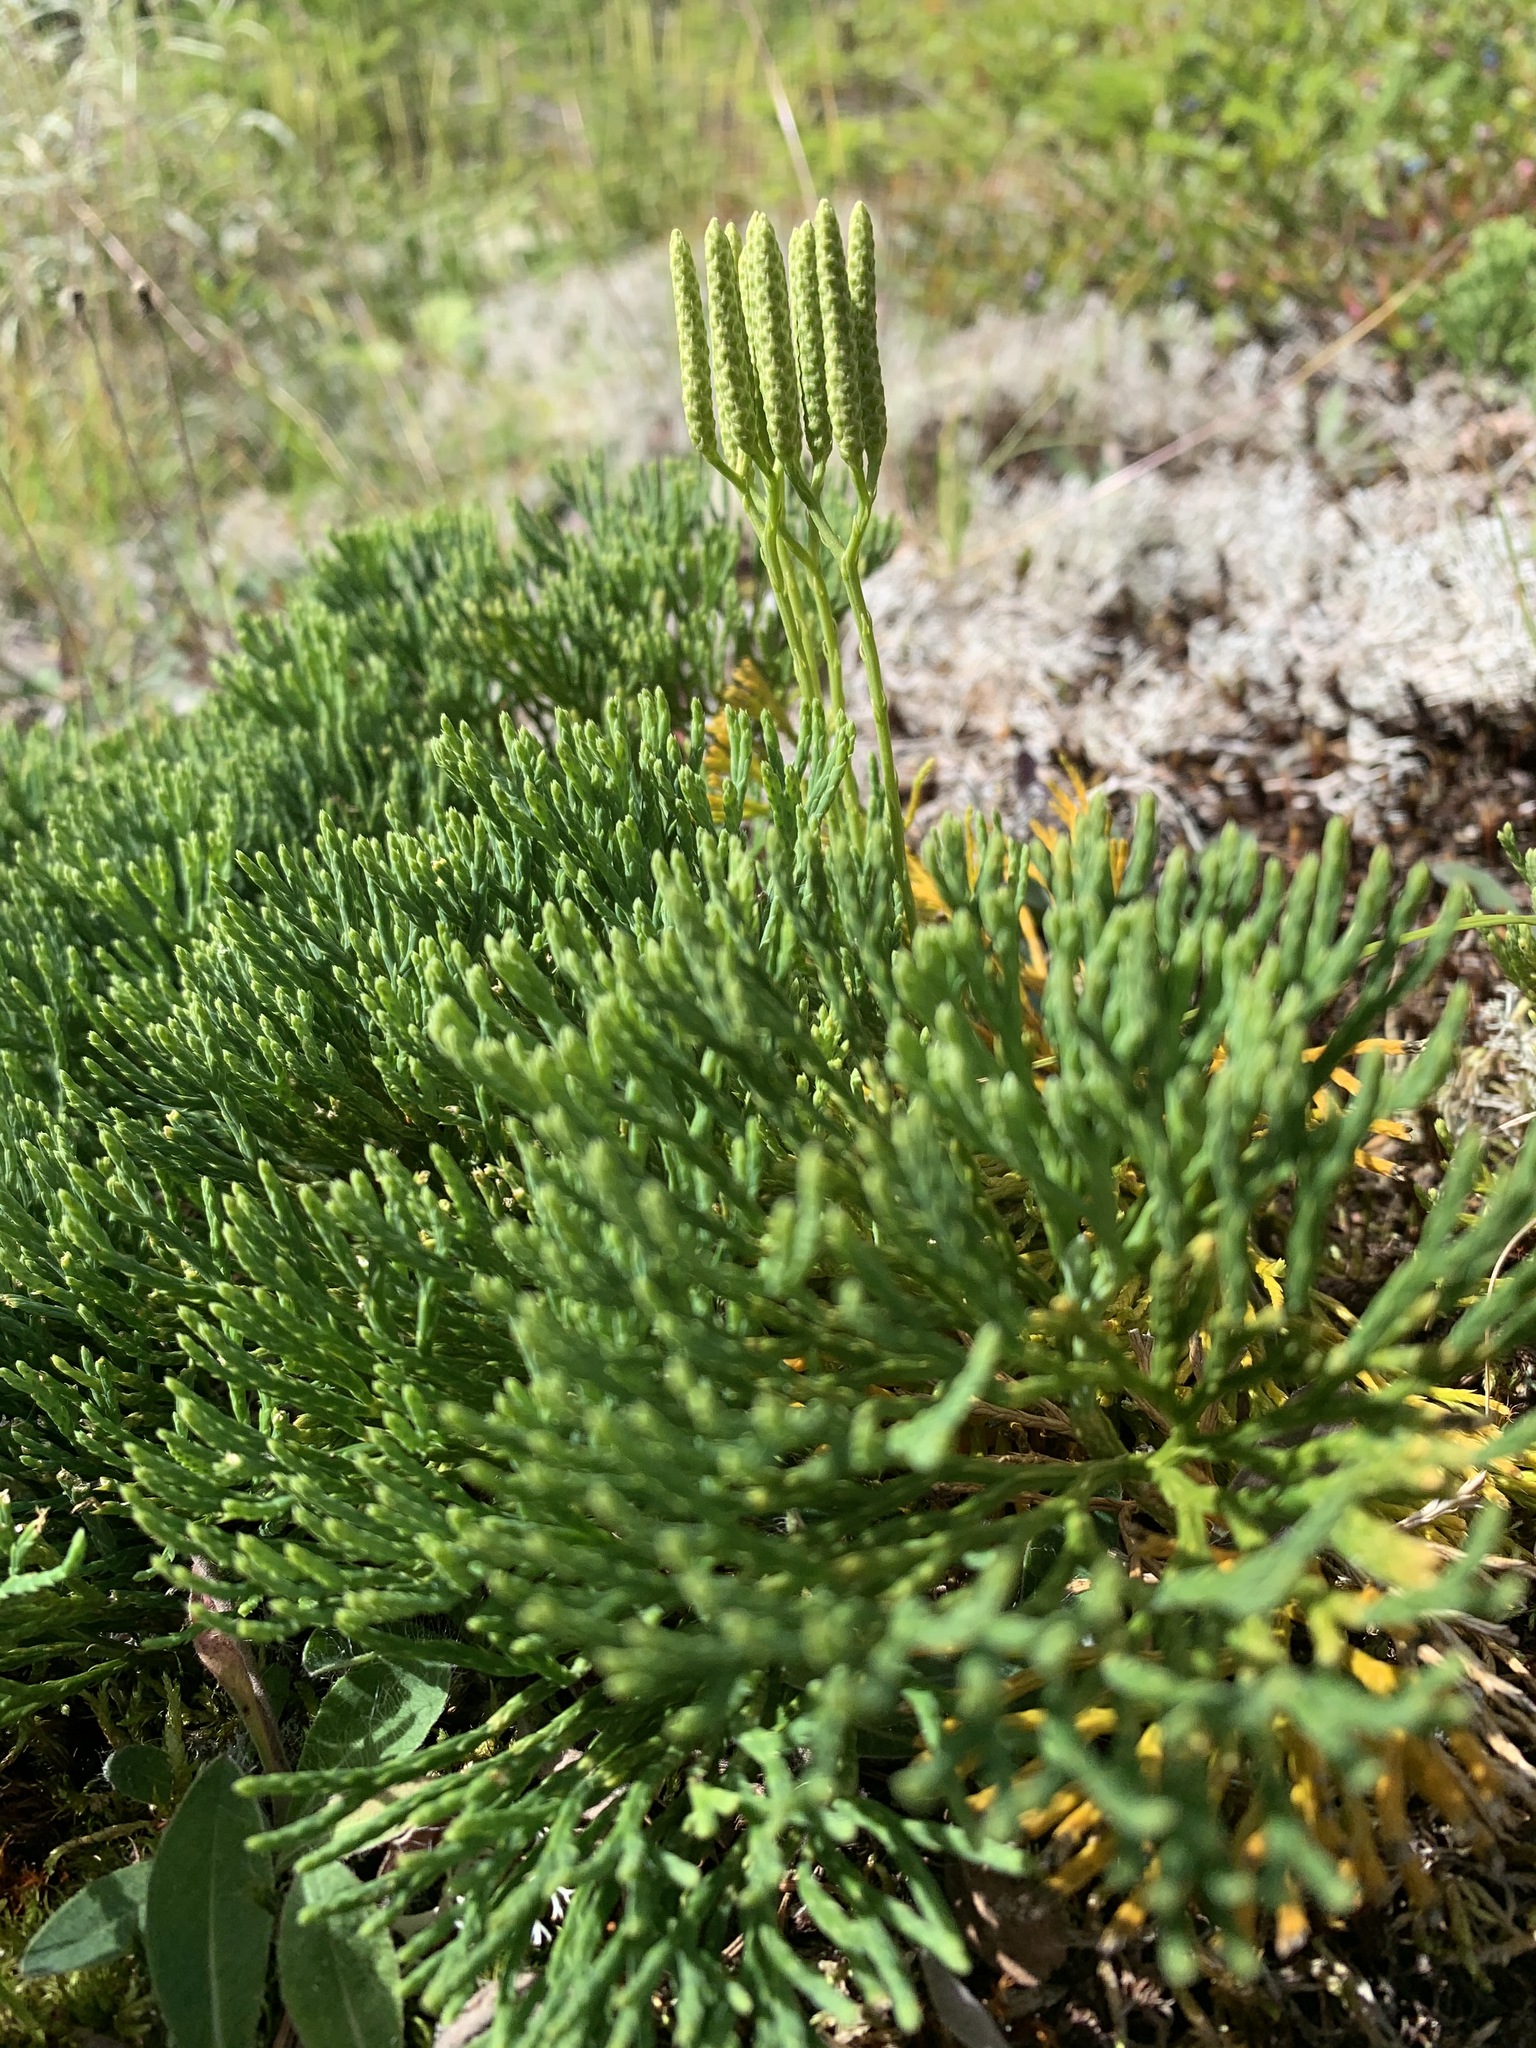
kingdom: Plantae
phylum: Tracheophyta
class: Lycopodiopsida
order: Lycopodiales
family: Lycopodiaceae
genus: Diphasiastrum
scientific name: Diphasiastrum tristachyum
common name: Blue ground-cedar
